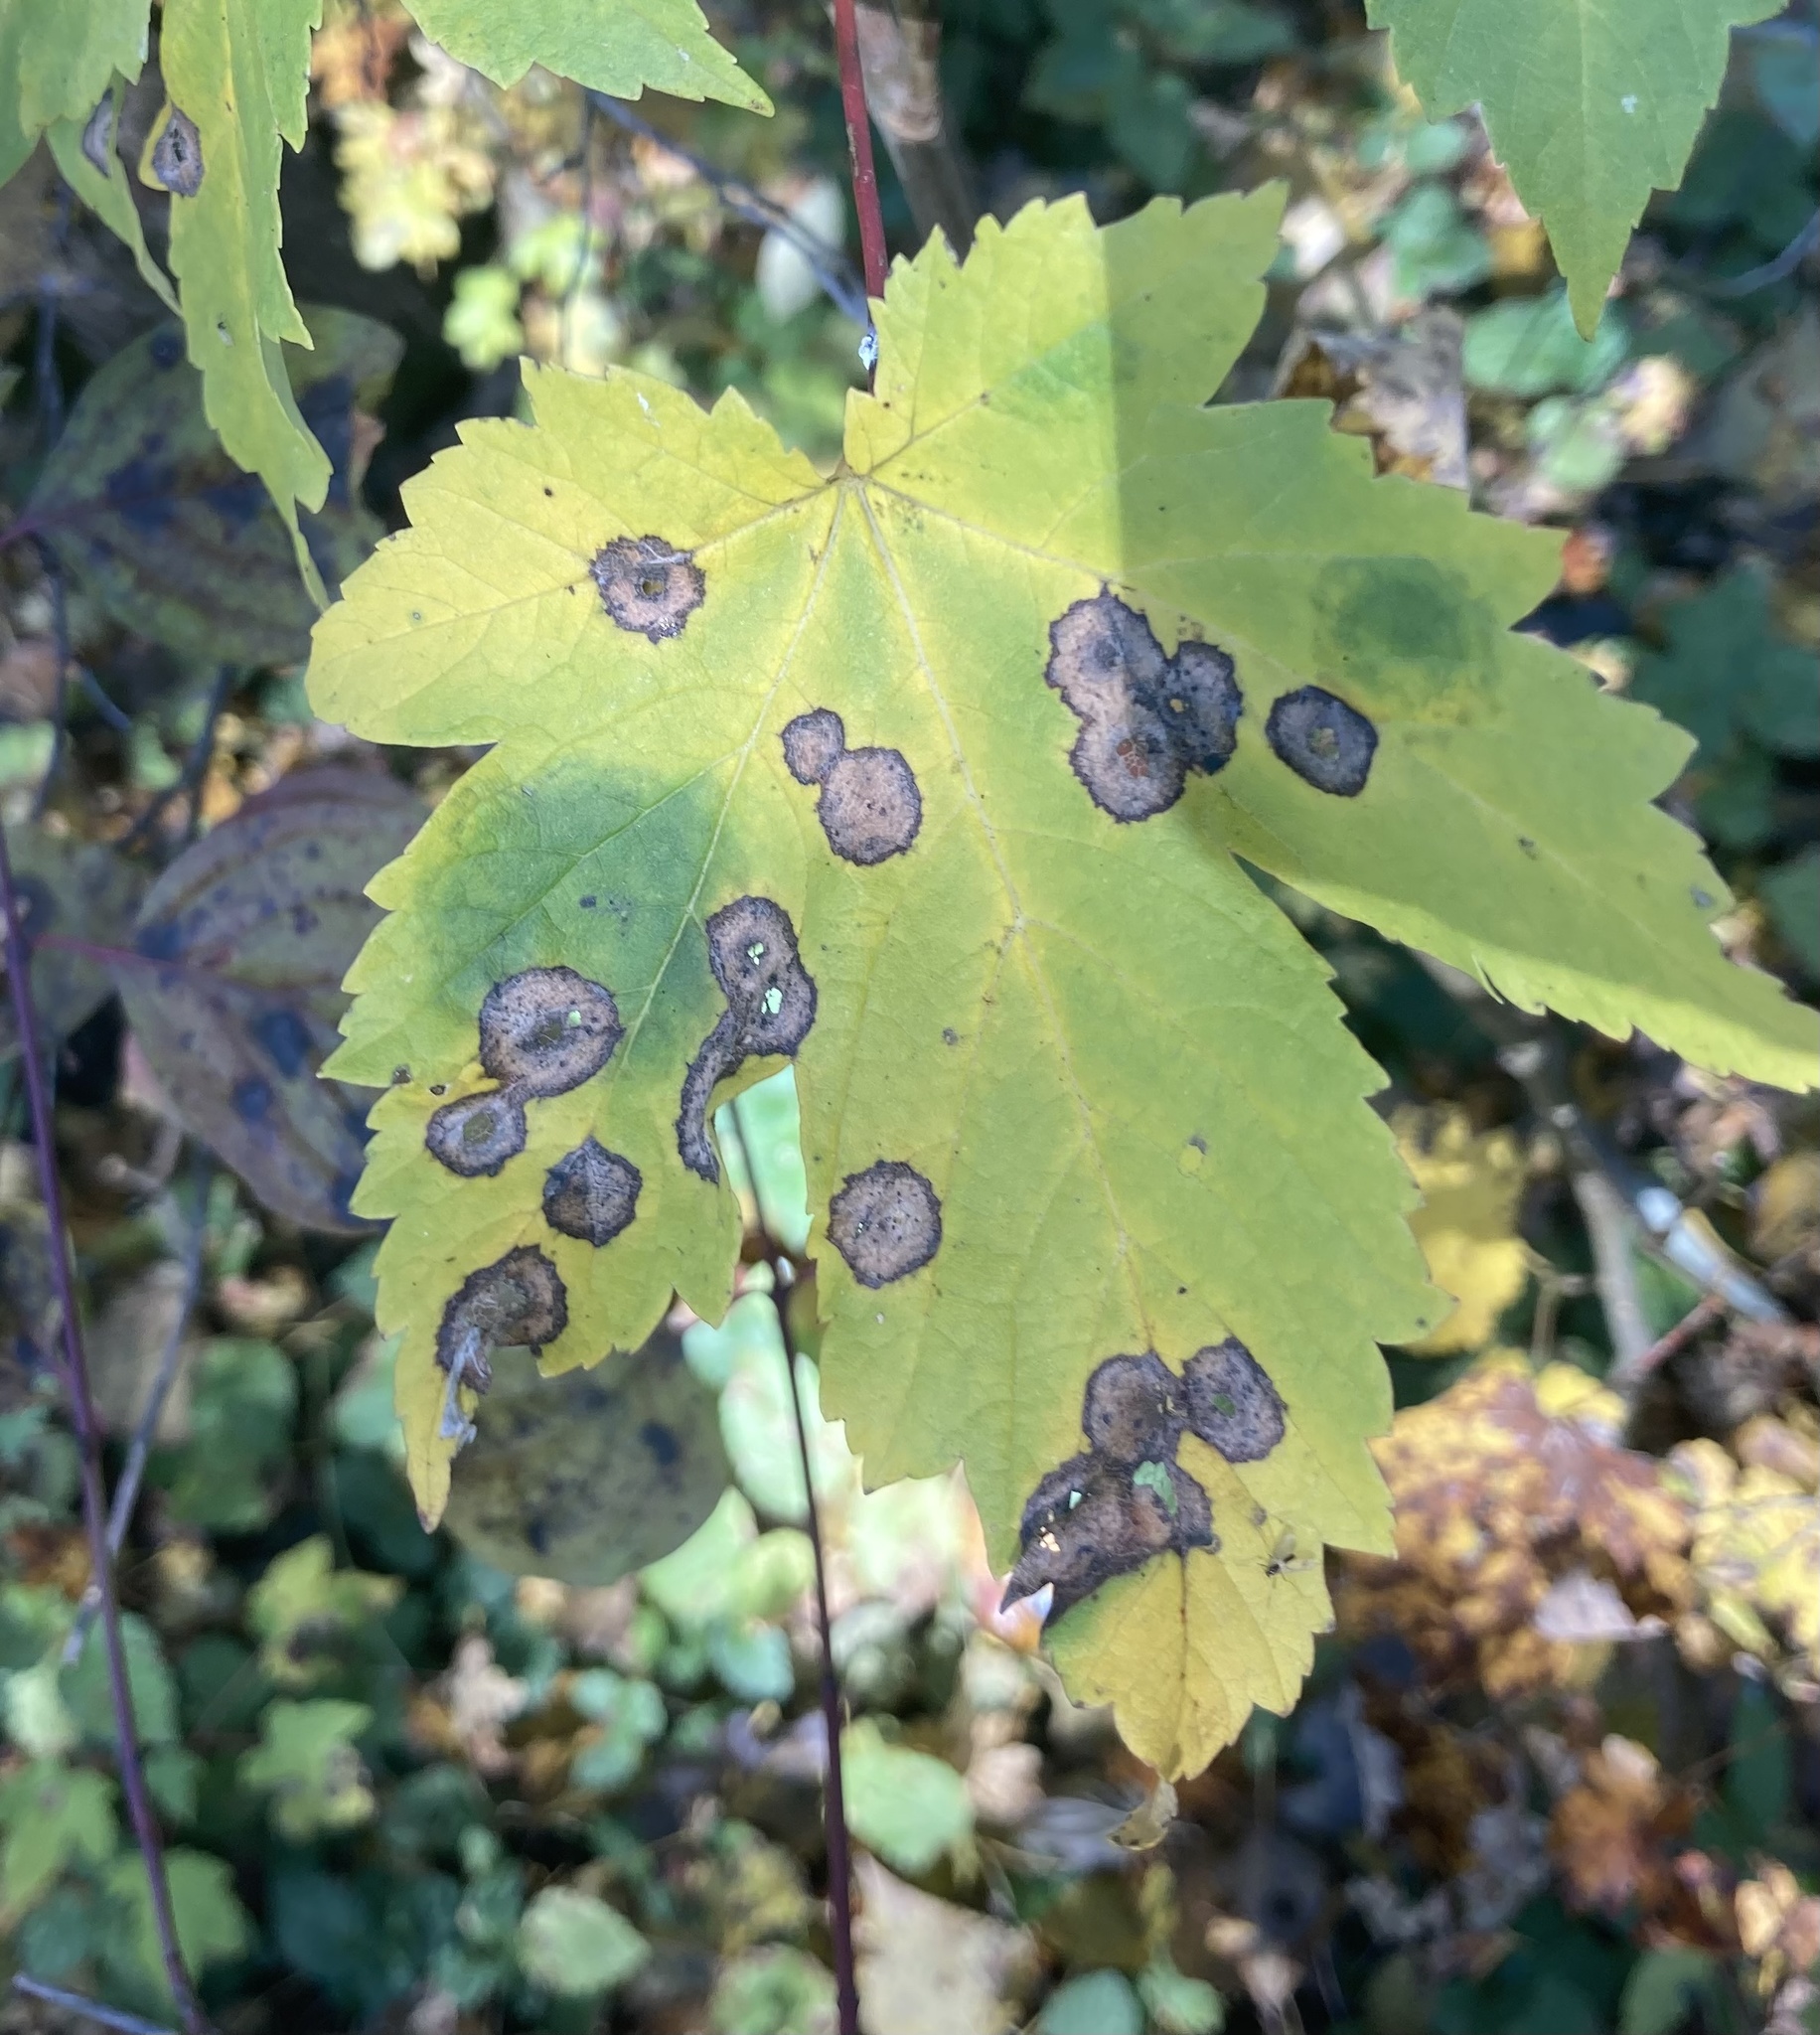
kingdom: Fungi
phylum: Ascomycota
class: Leotiomycetes
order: Rhytismatales
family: Rhytismataceae
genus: Rhytisma
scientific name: Rhytisma acerinum
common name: European tar spot
